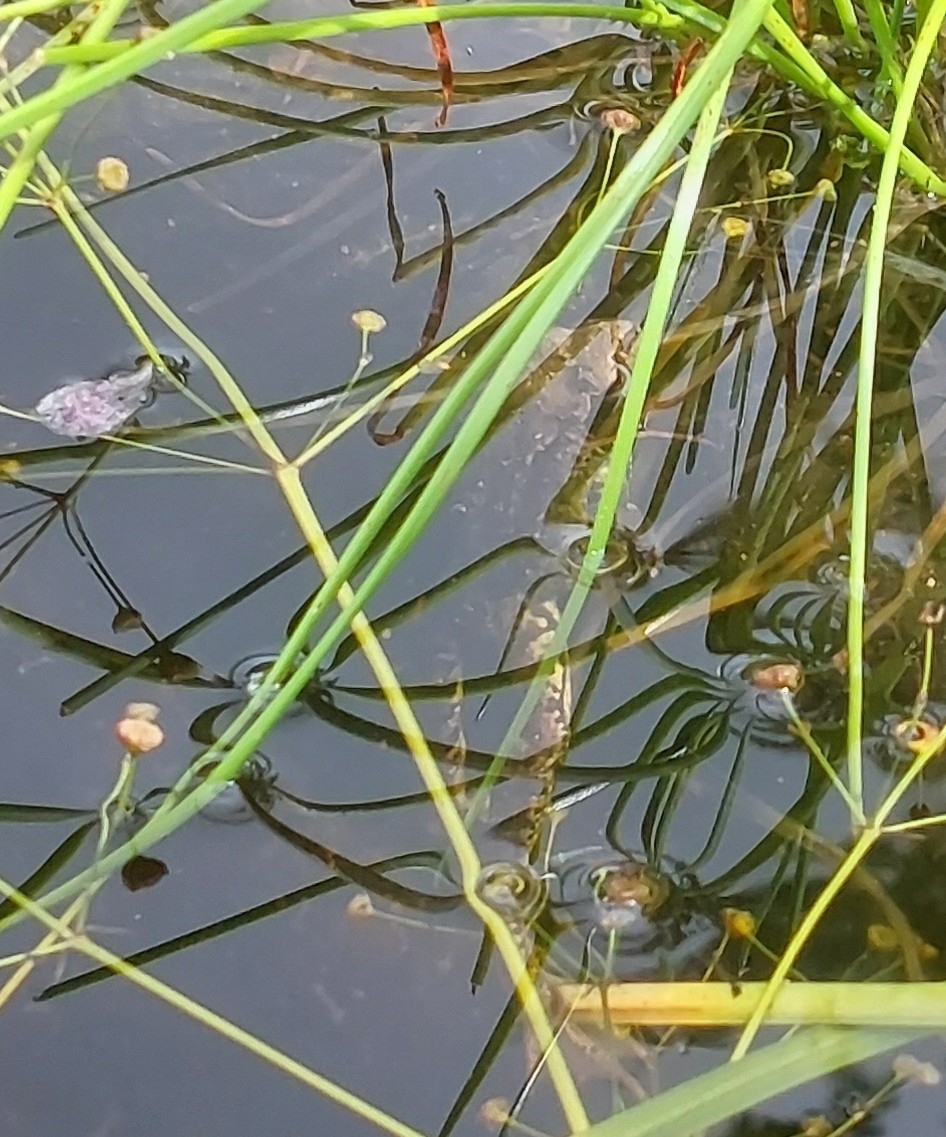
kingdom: Animalia
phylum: Chordata
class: Amphibia
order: Anura
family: Ranidae
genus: Rana
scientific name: Rana temporaria
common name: Common frog
